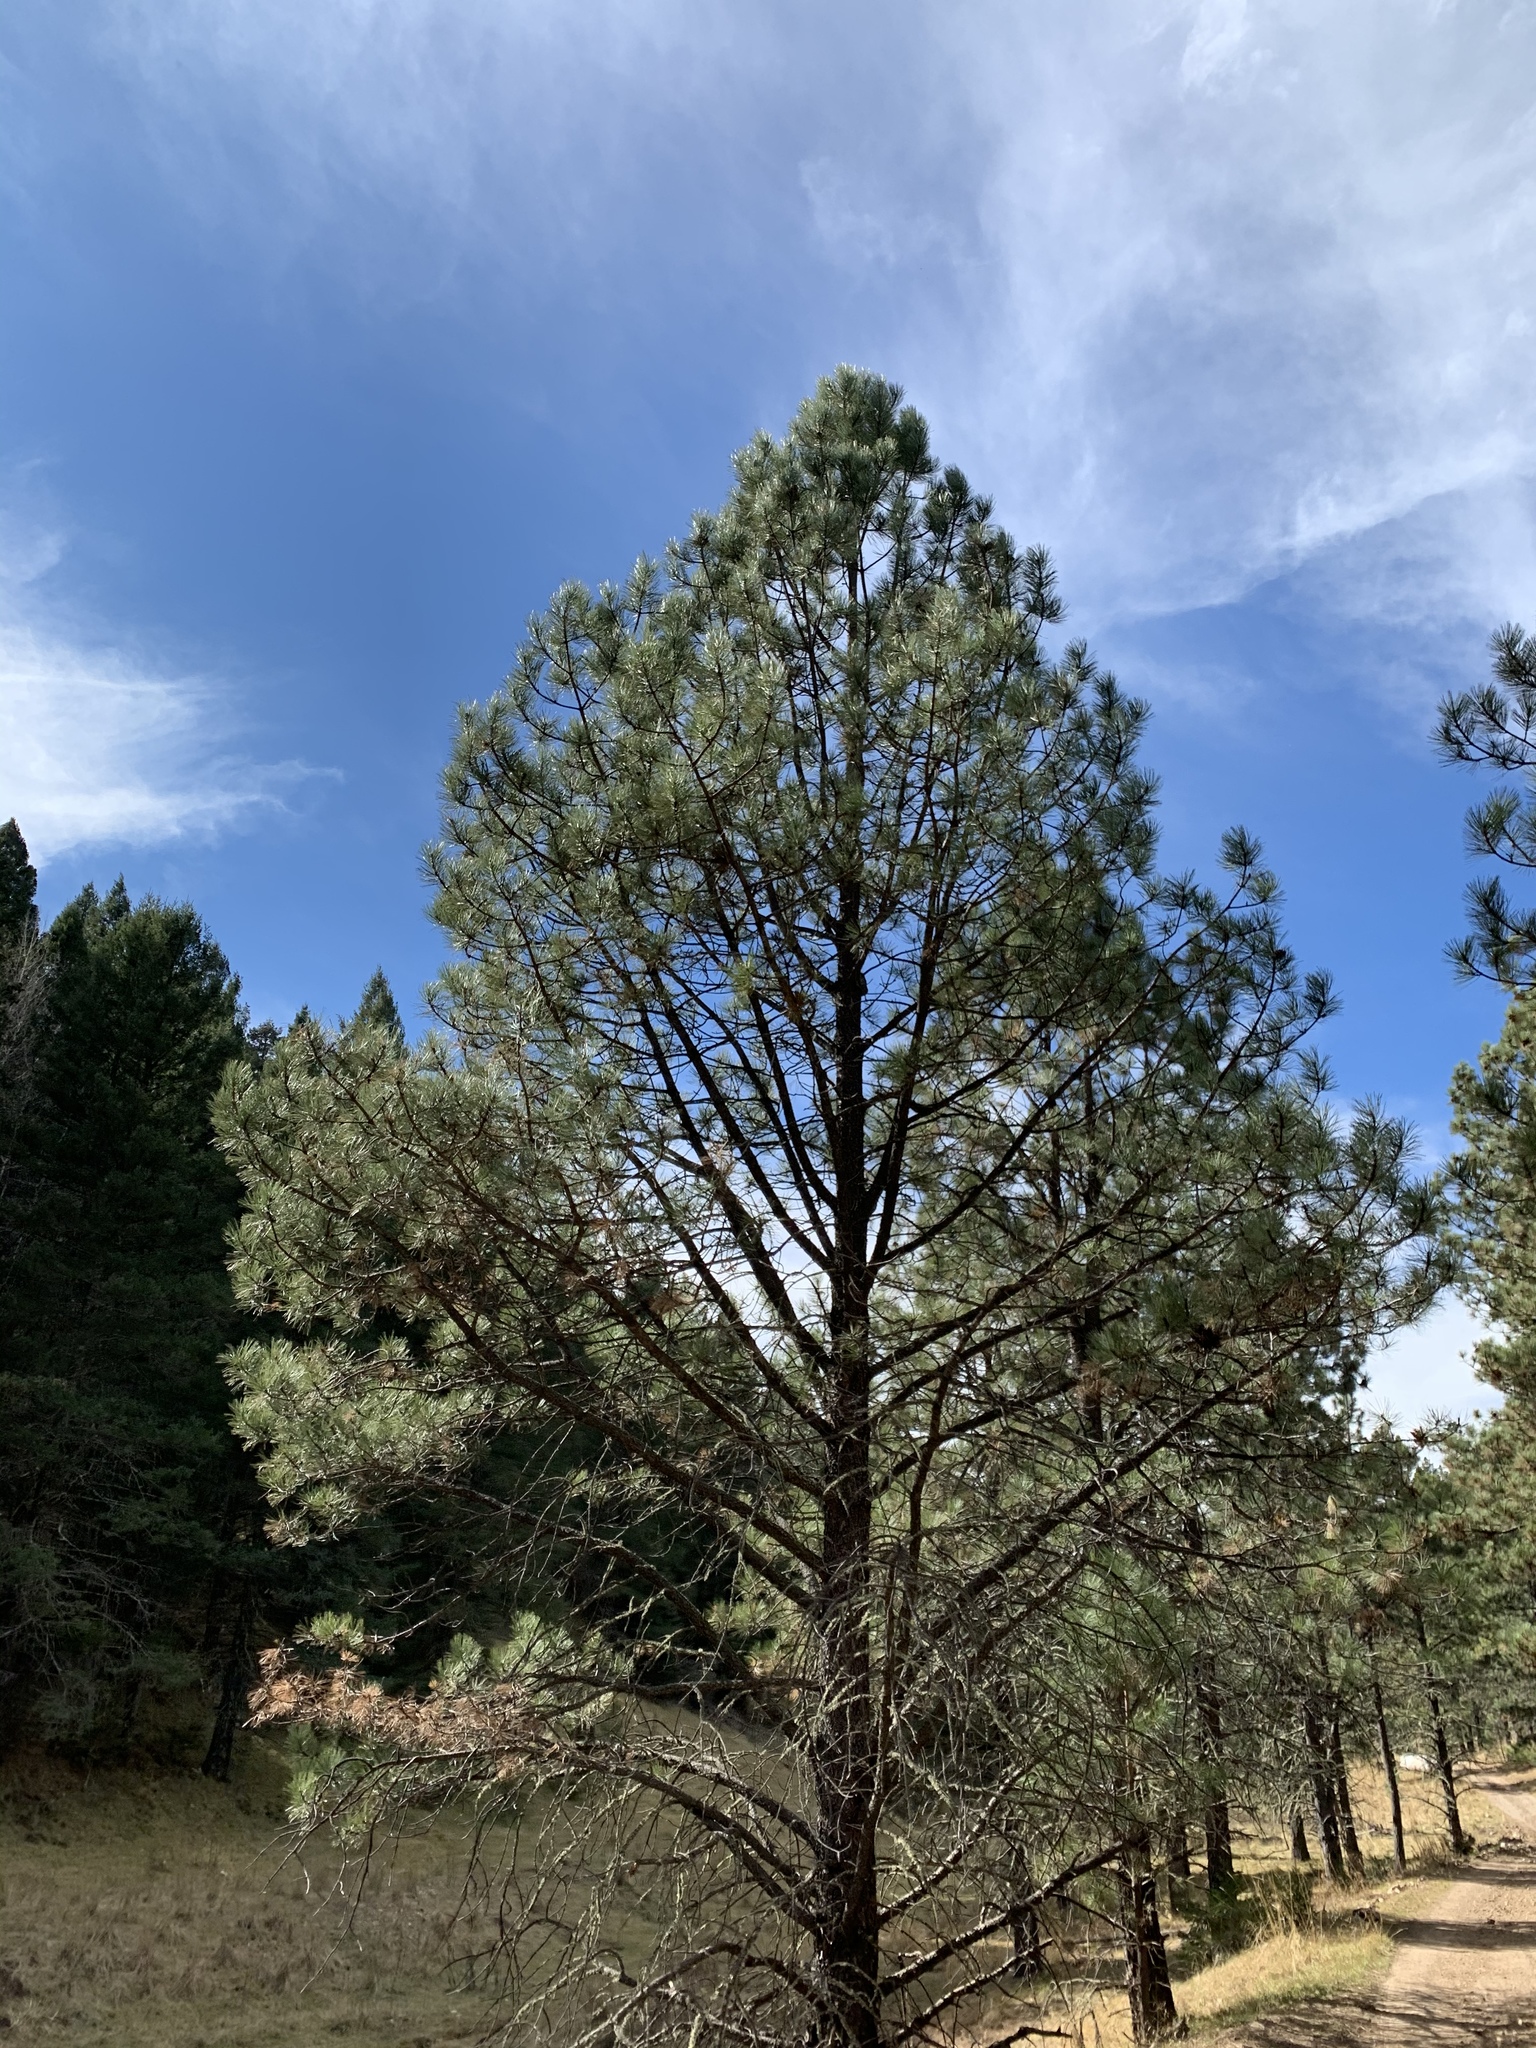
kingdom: Plantae
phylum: Tracheophyta
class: Pinopsida
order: Pinales
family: Pinaceae
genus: Pinus
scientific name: Pinus ponderosa
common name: Western yellow-pine
